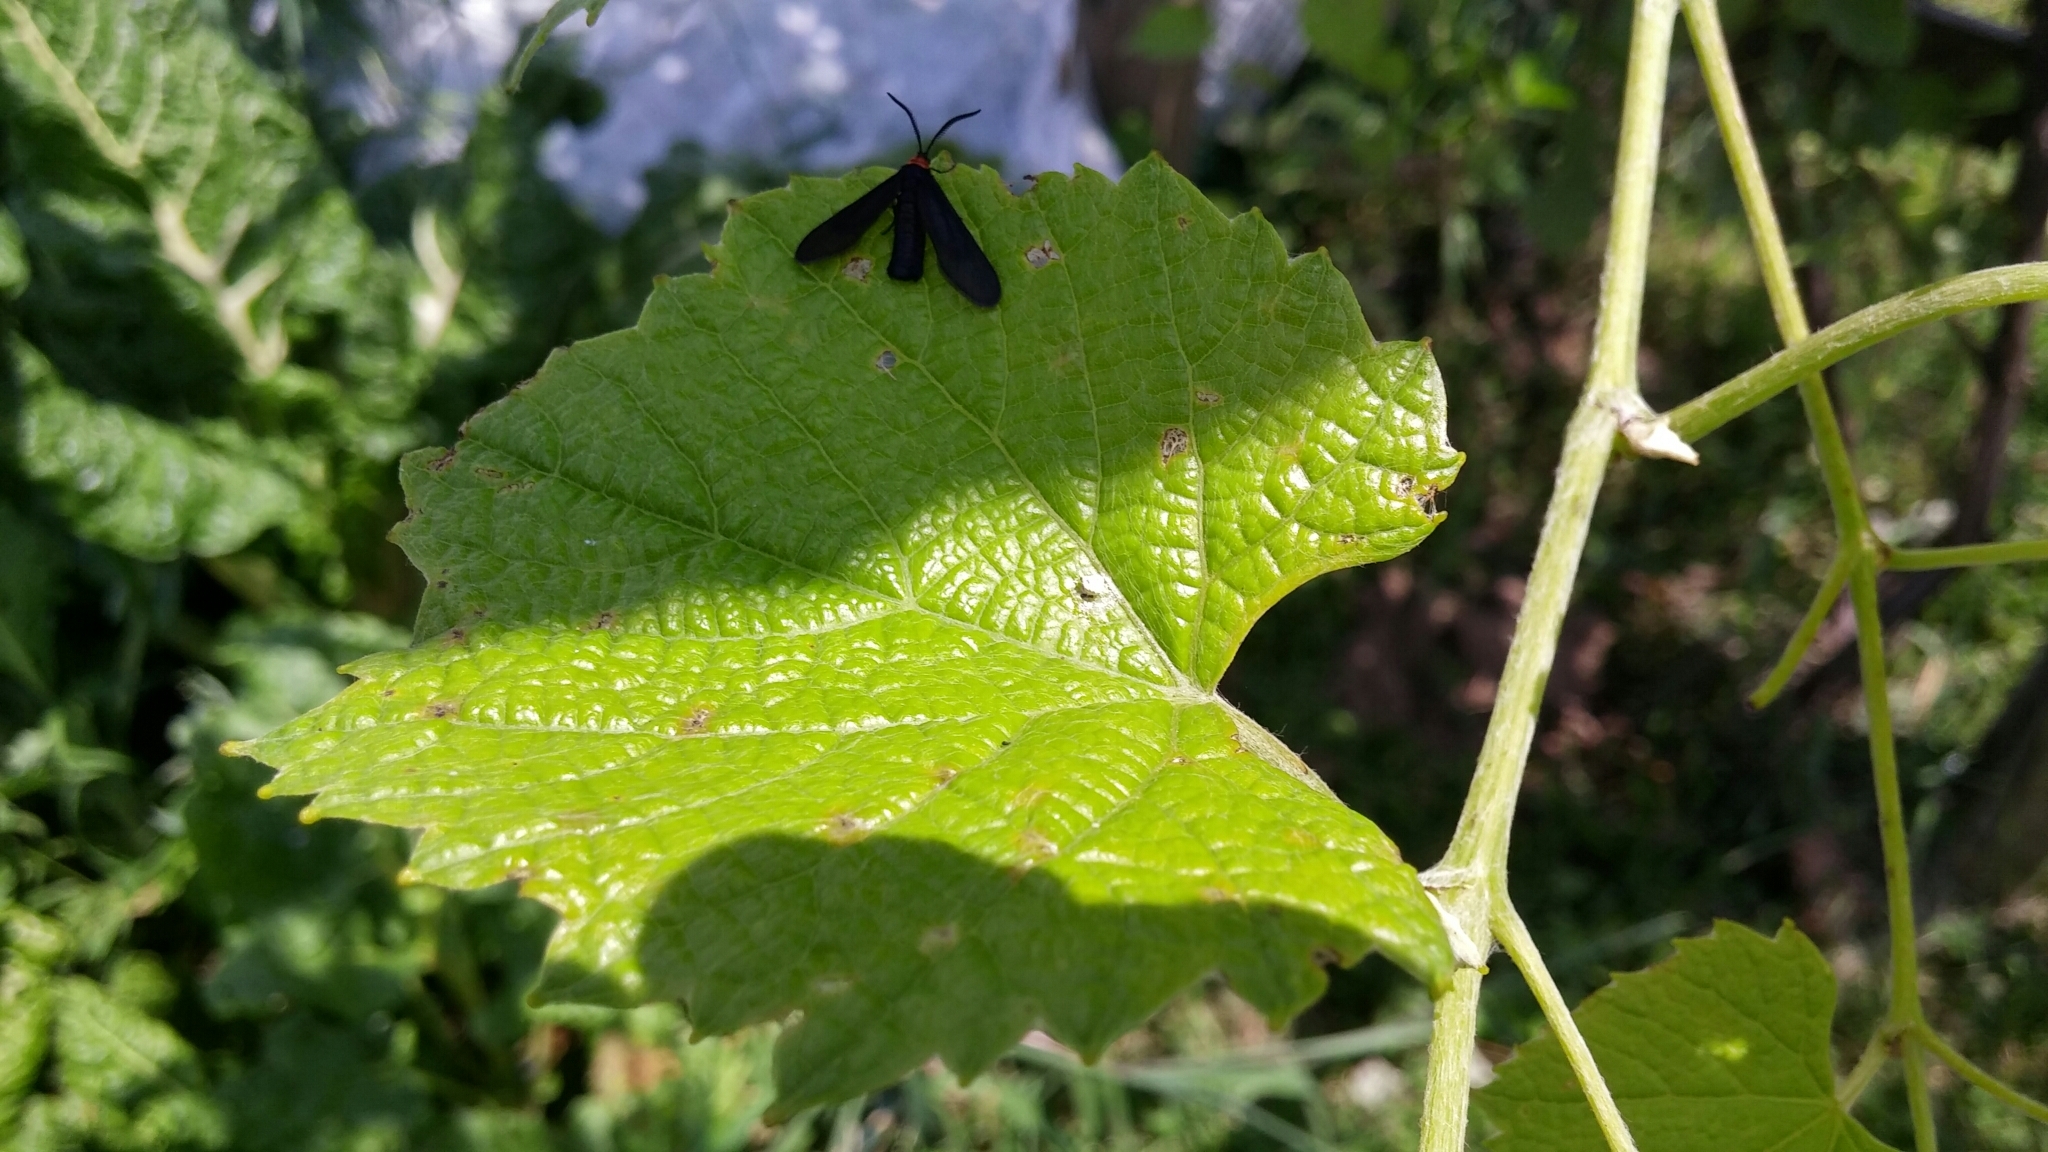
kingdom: Animalia
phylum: Arthropoda
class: Insecta
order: Lepidoptera
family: Zygaenidae
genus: Harrisina
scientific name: Harrisina americana
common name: Grapeleaf skeletonizer moth
